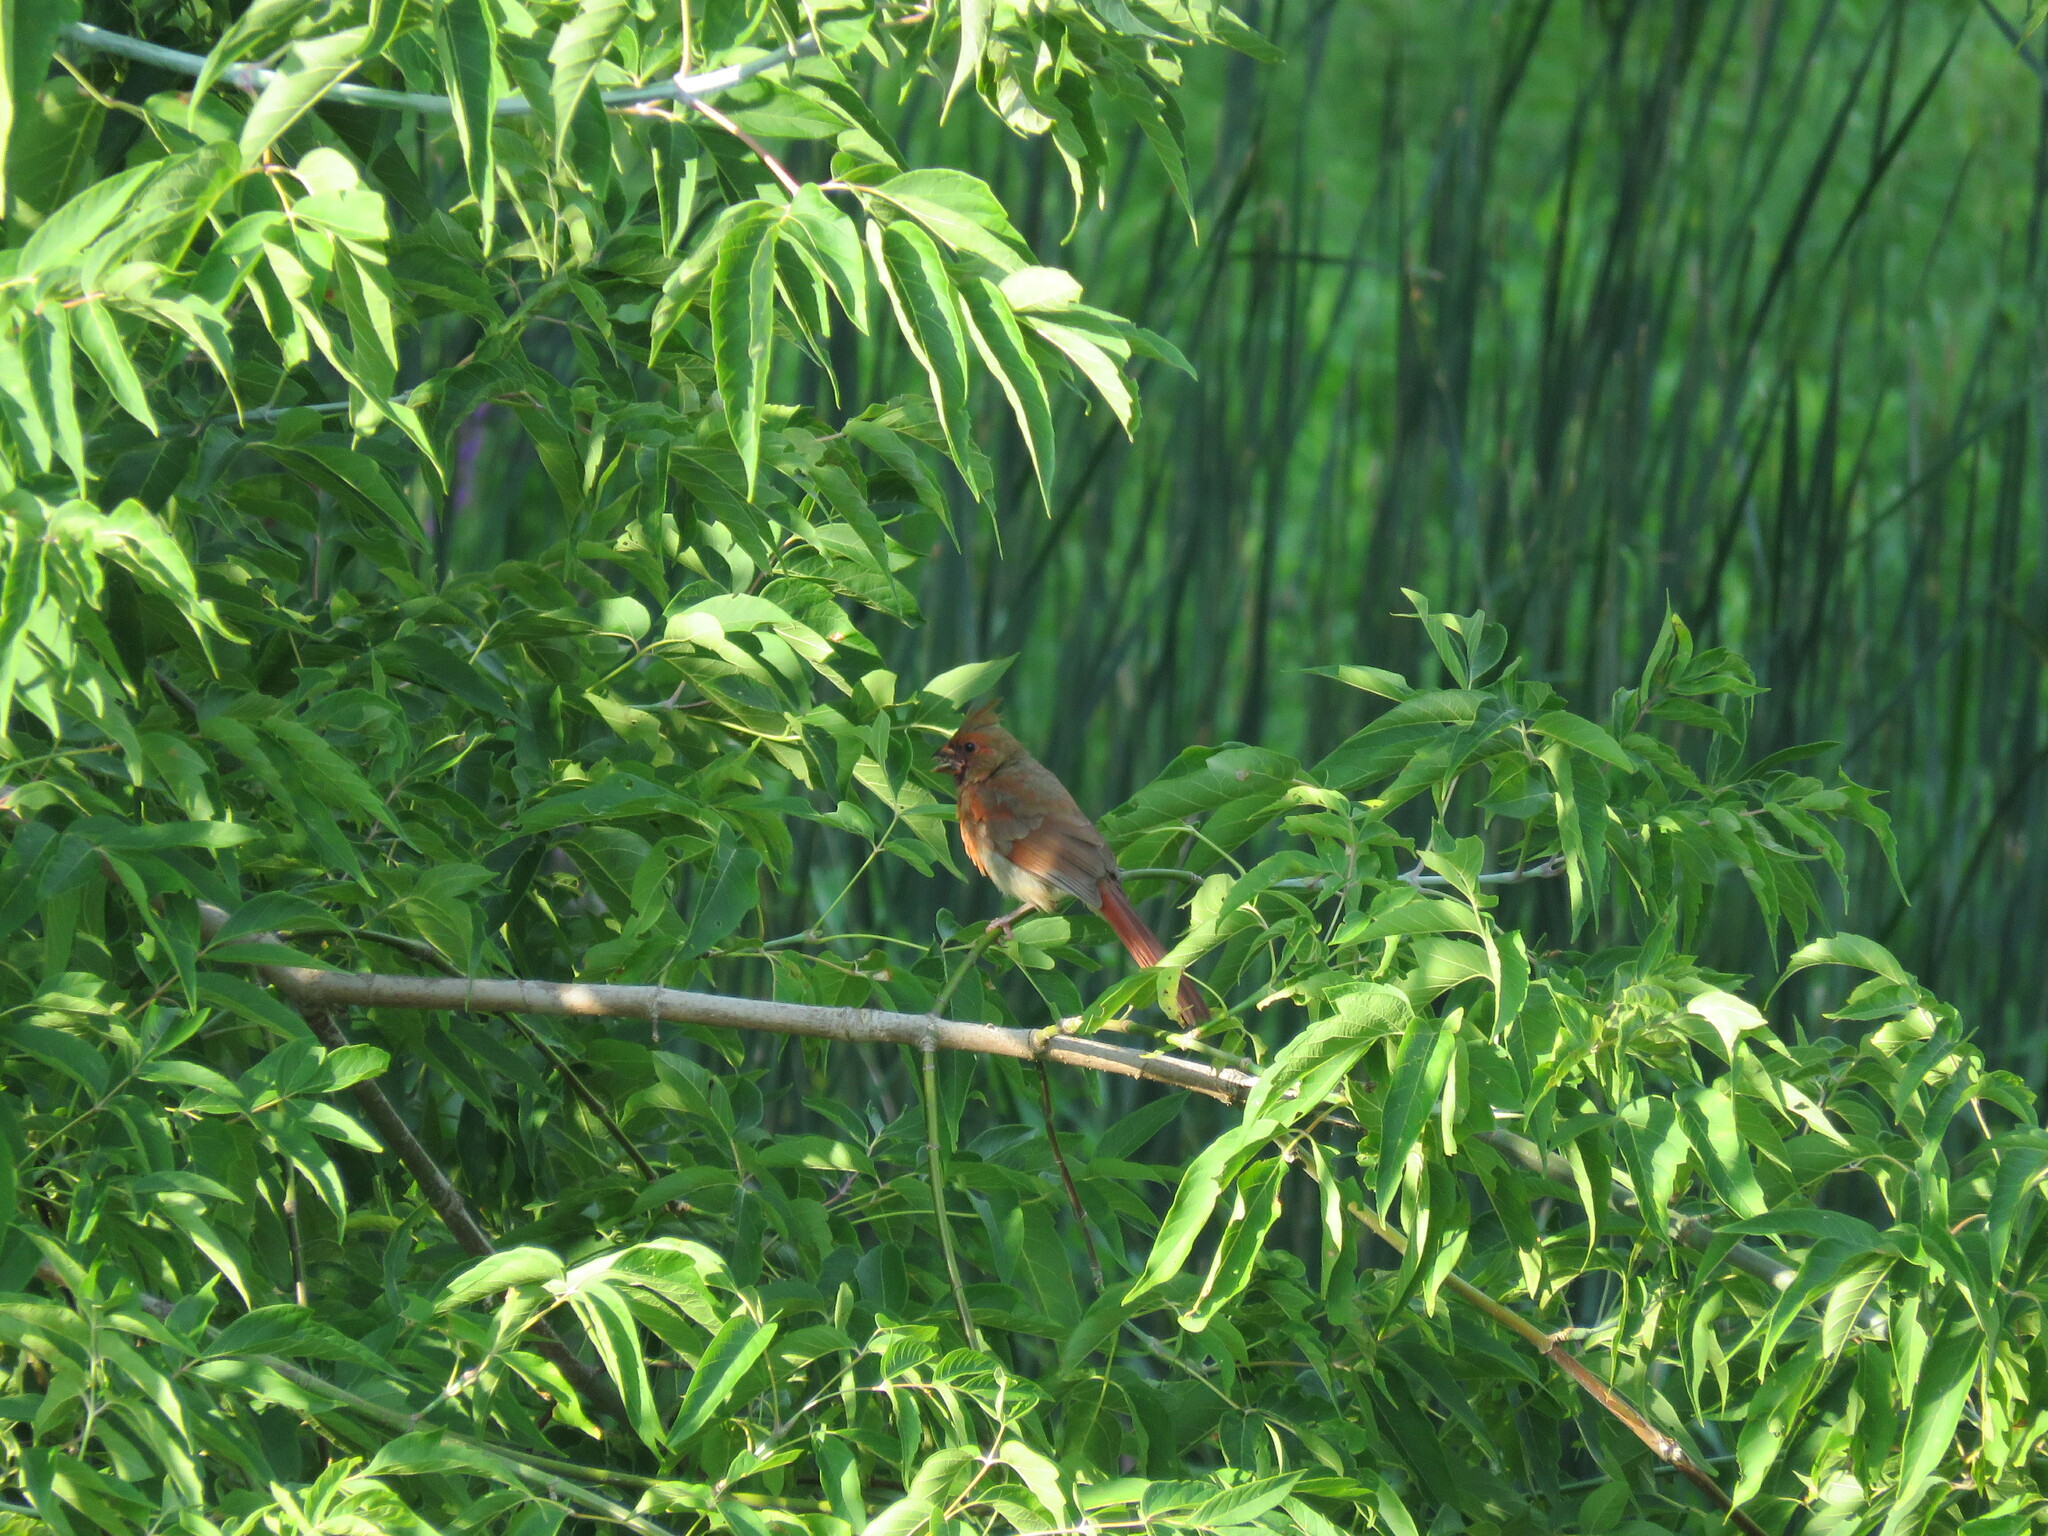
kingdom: Animalia
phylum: Chordata
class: Aves
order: Passeriformes
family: Cardinalidae
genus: Cardinalis
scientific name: Cardinalis cardinalis
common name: Northern cardinal
